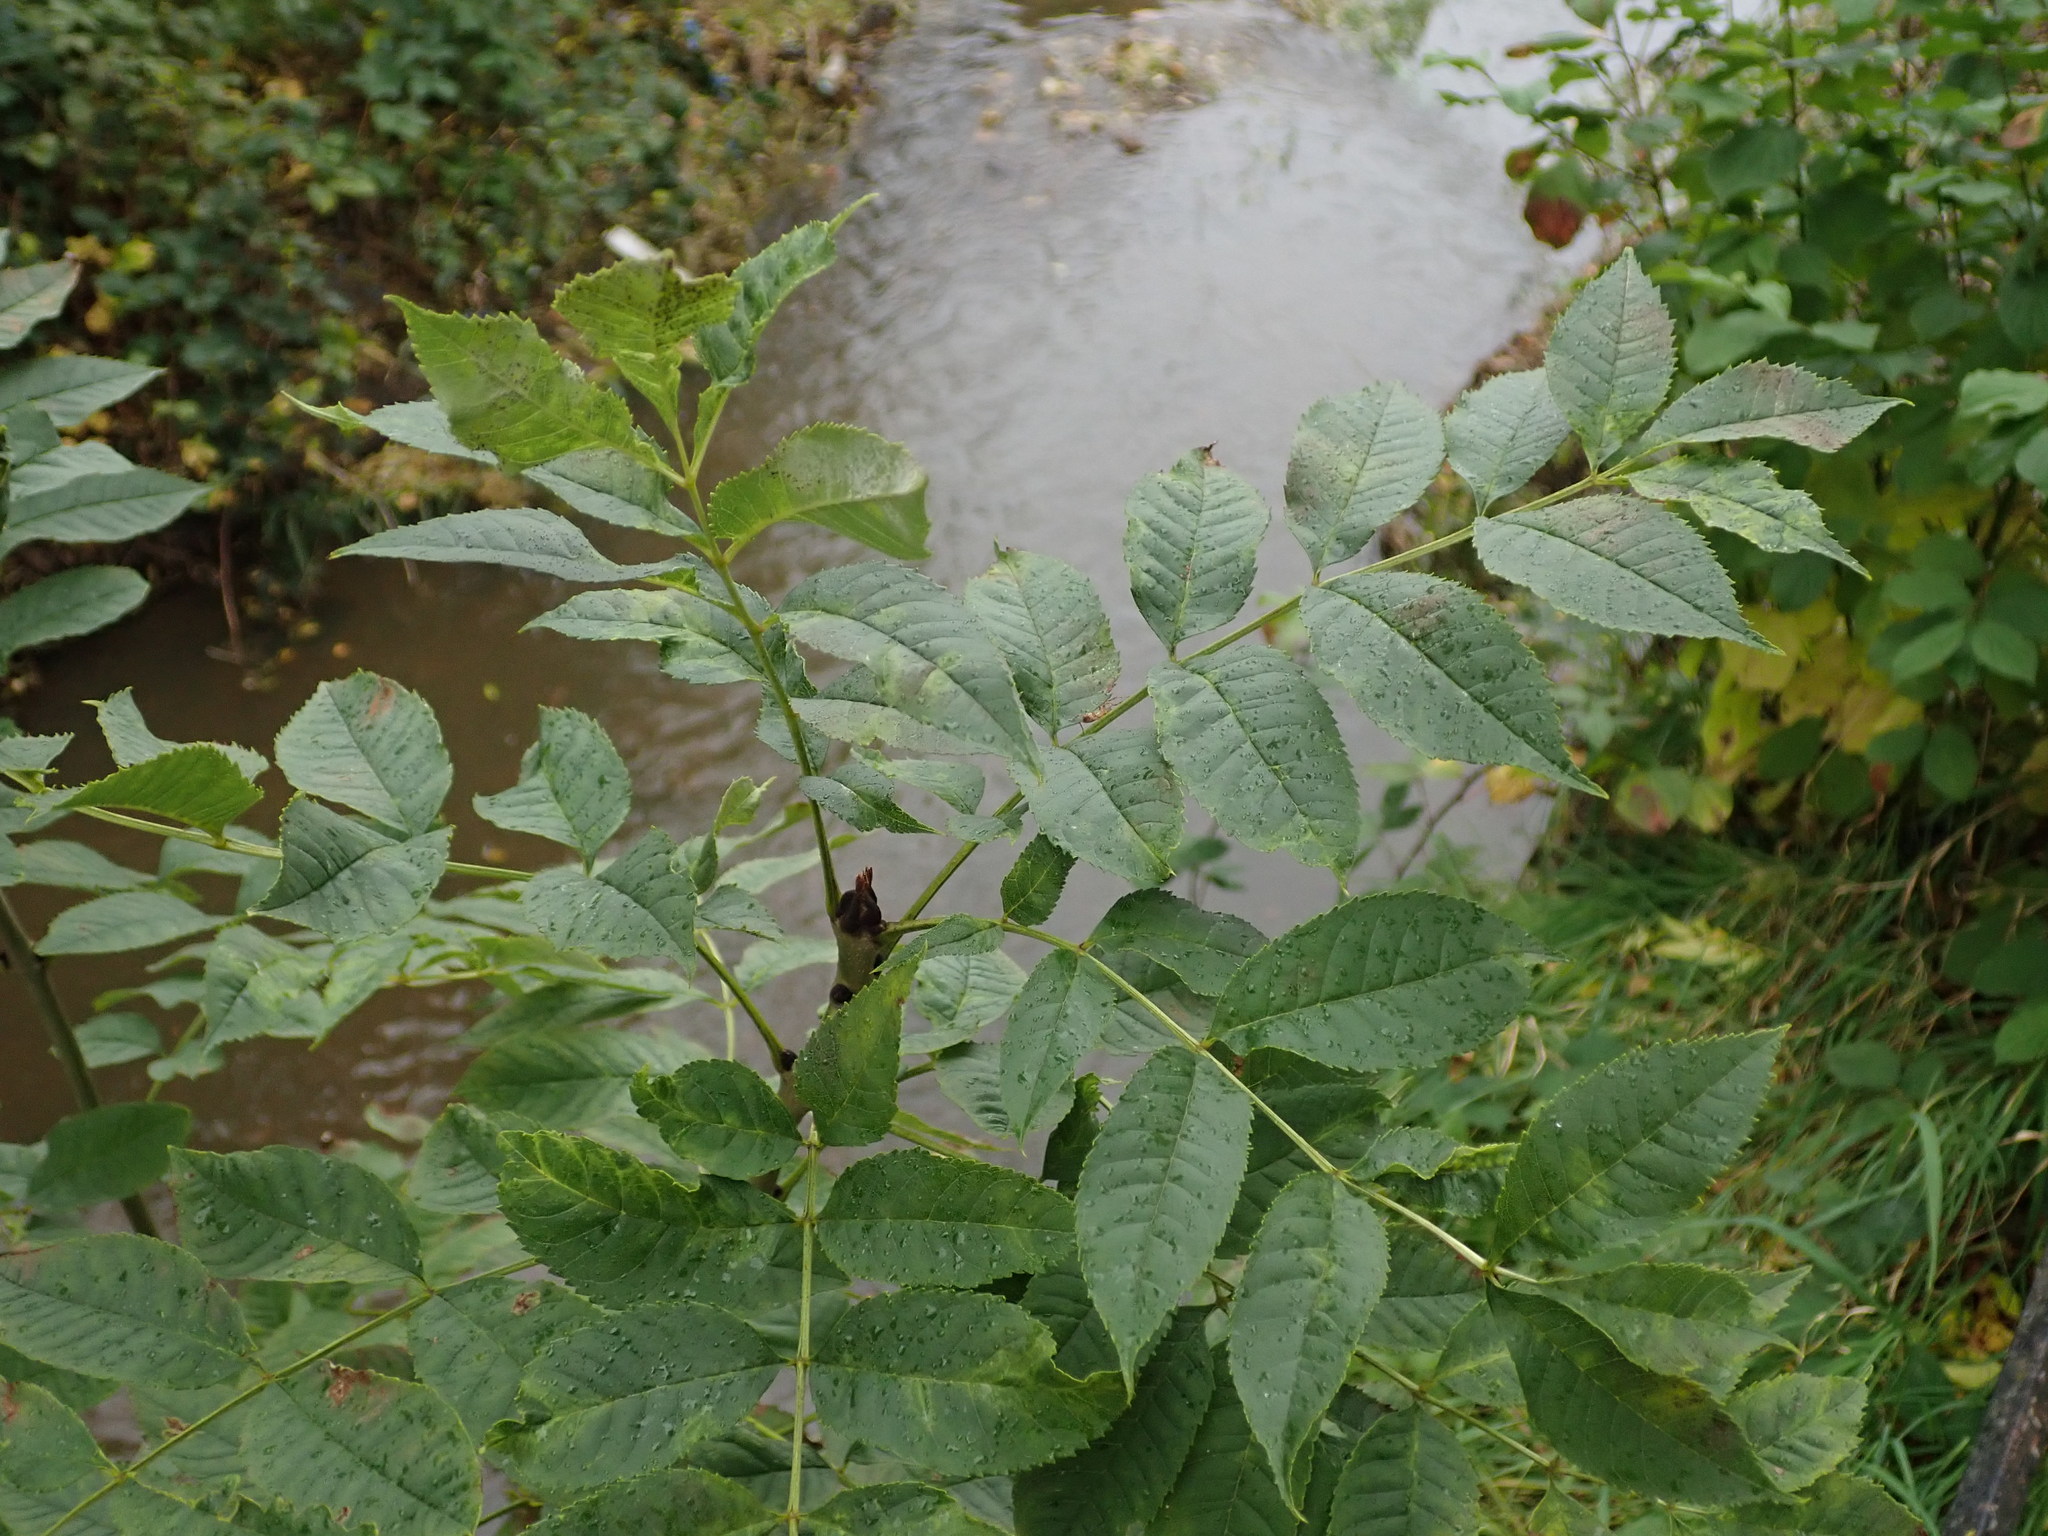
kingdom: Plantae
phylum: Tracheophyta
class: Magnoliopsida
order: Lamiales
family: Oleaceae
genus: Fraxinus
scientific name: Fraxinus excelsior
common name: European ash
